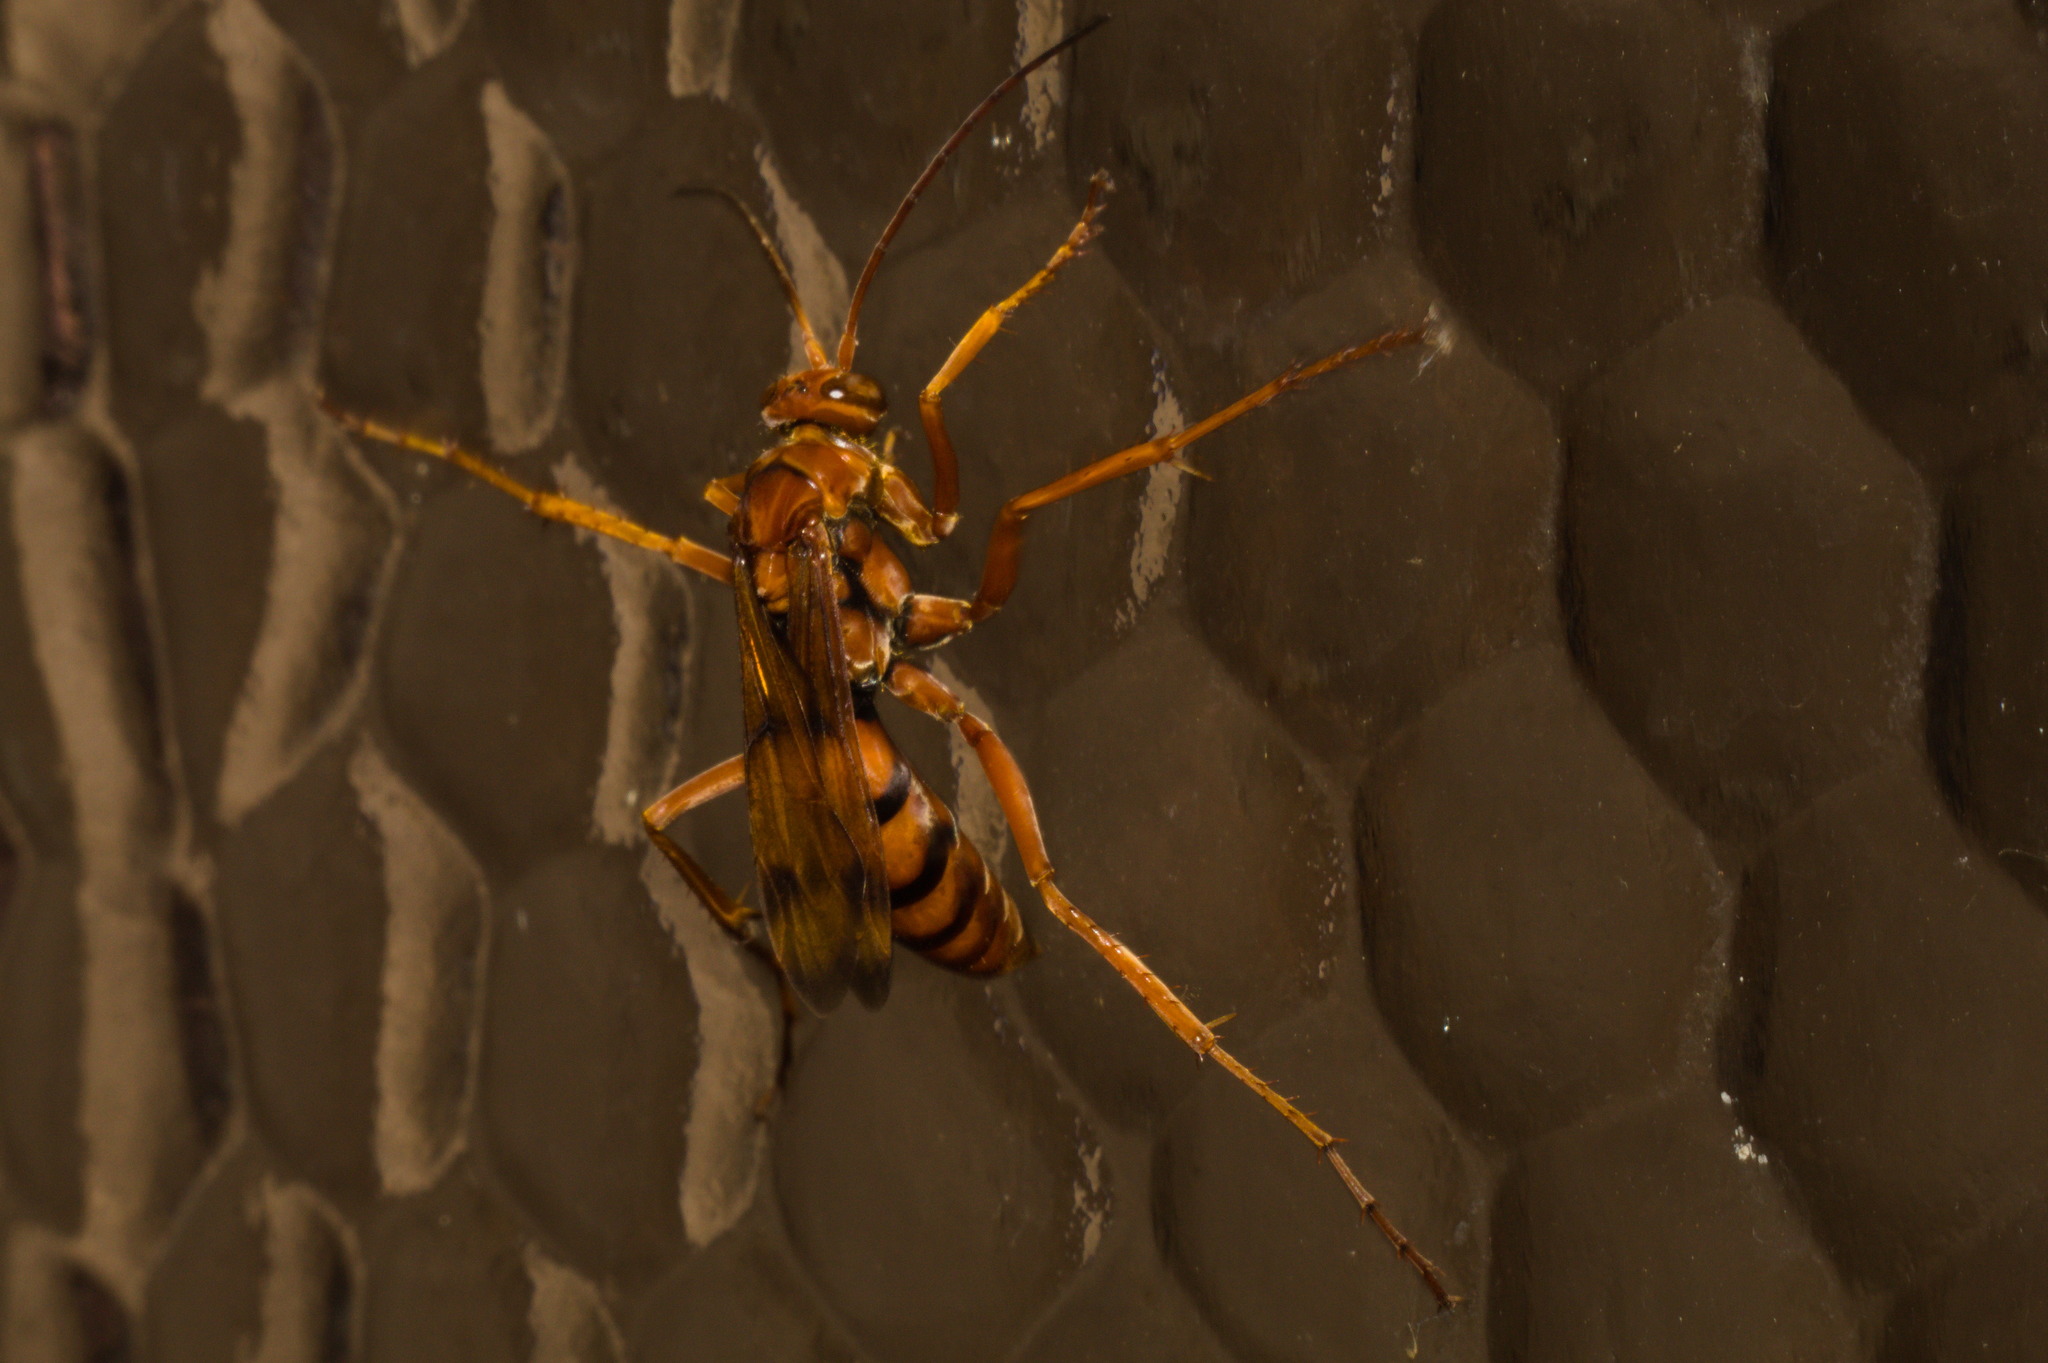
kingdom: Animalia
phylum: Arthropoda
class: Insecta
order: Hymenoptera
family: Pompilidae
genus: Tachypompilus
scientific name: Tachypompilus mendozae
